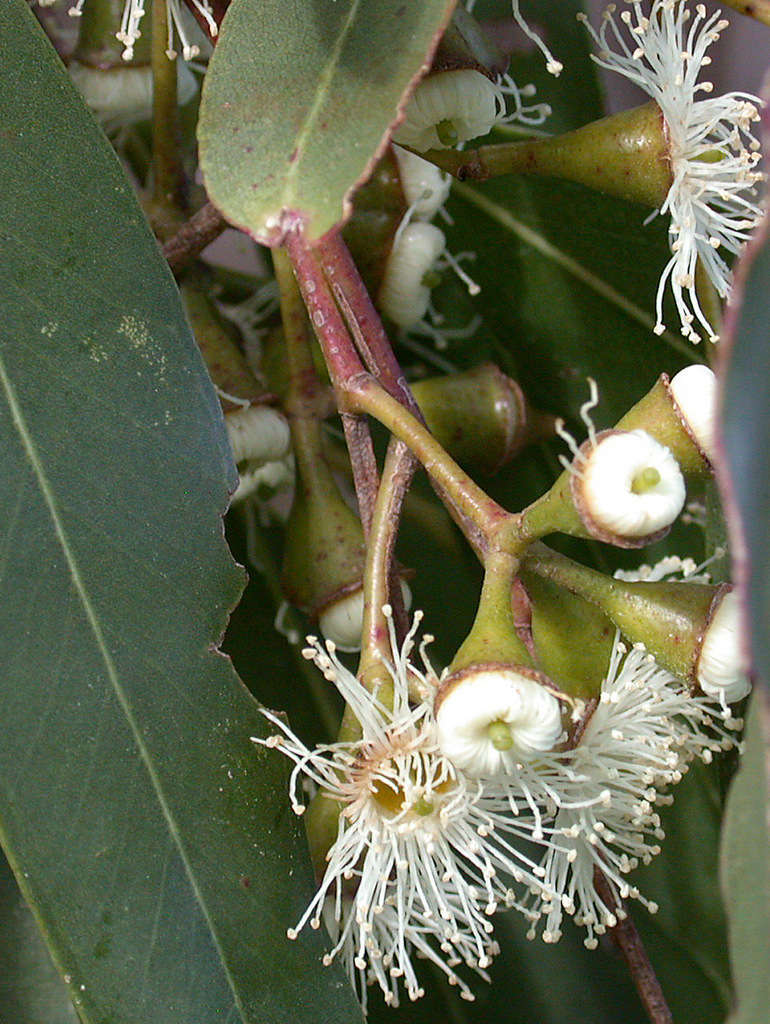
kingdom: Plantae
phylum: Tracheophyta
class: Magnoliopsida
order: Myrtales
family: Myrtaceae
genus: Eucalyptus
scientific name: Eucalyptus ovata
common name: Black-gum
